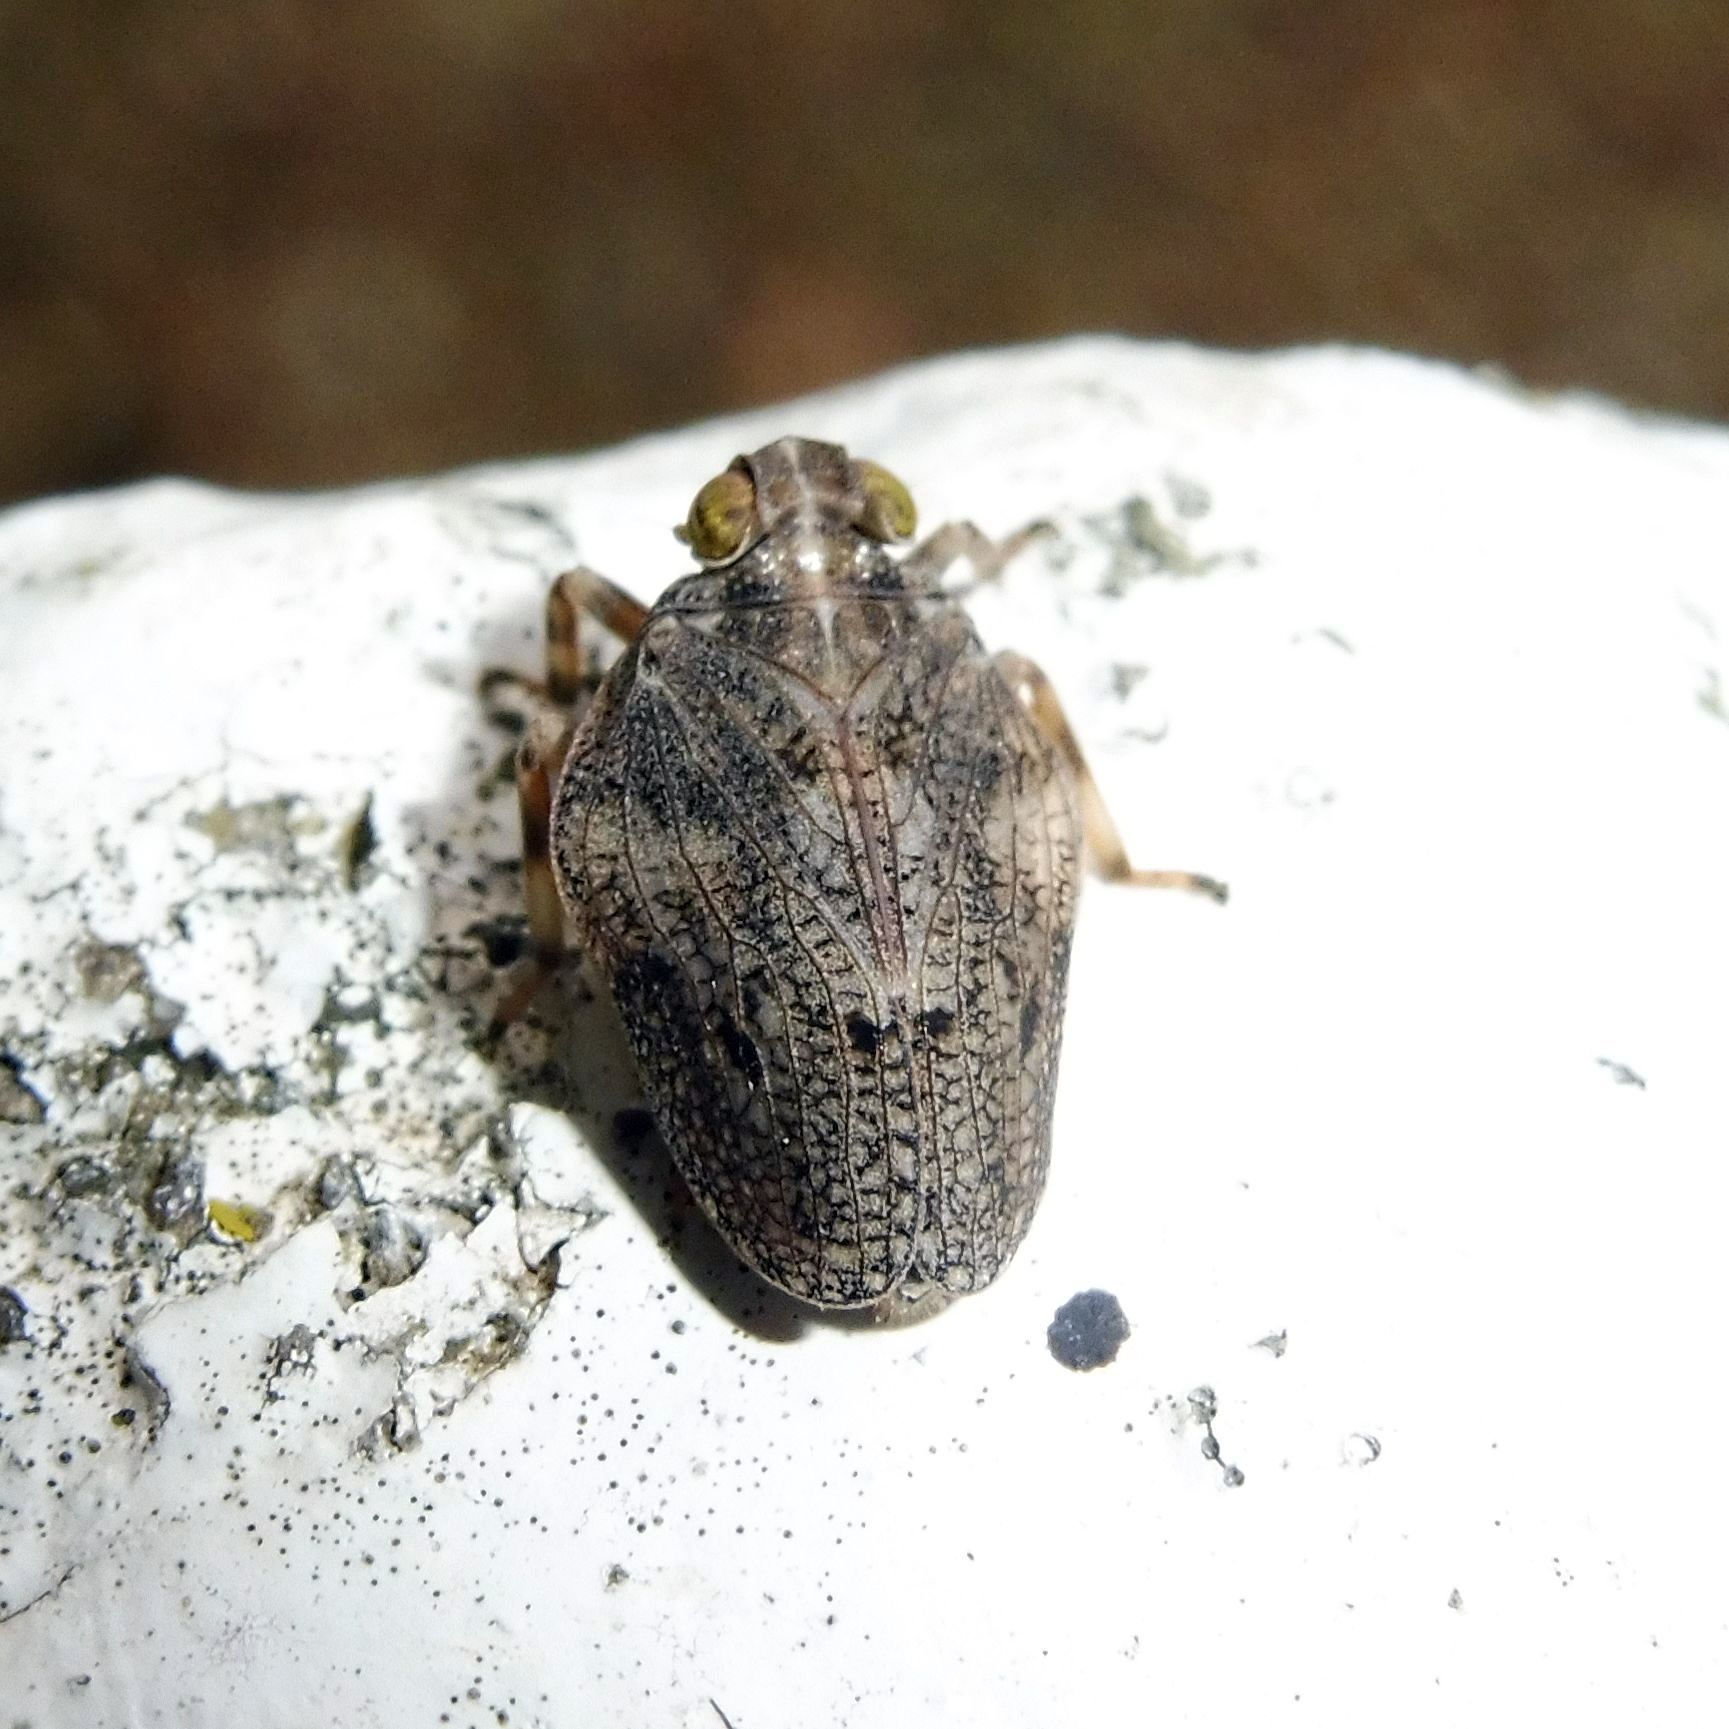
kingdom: Animalia
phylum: Arthropoda
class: Insecta
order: Hemiptera
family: Issidae
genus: Issus
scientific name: Issus coleoptratus
